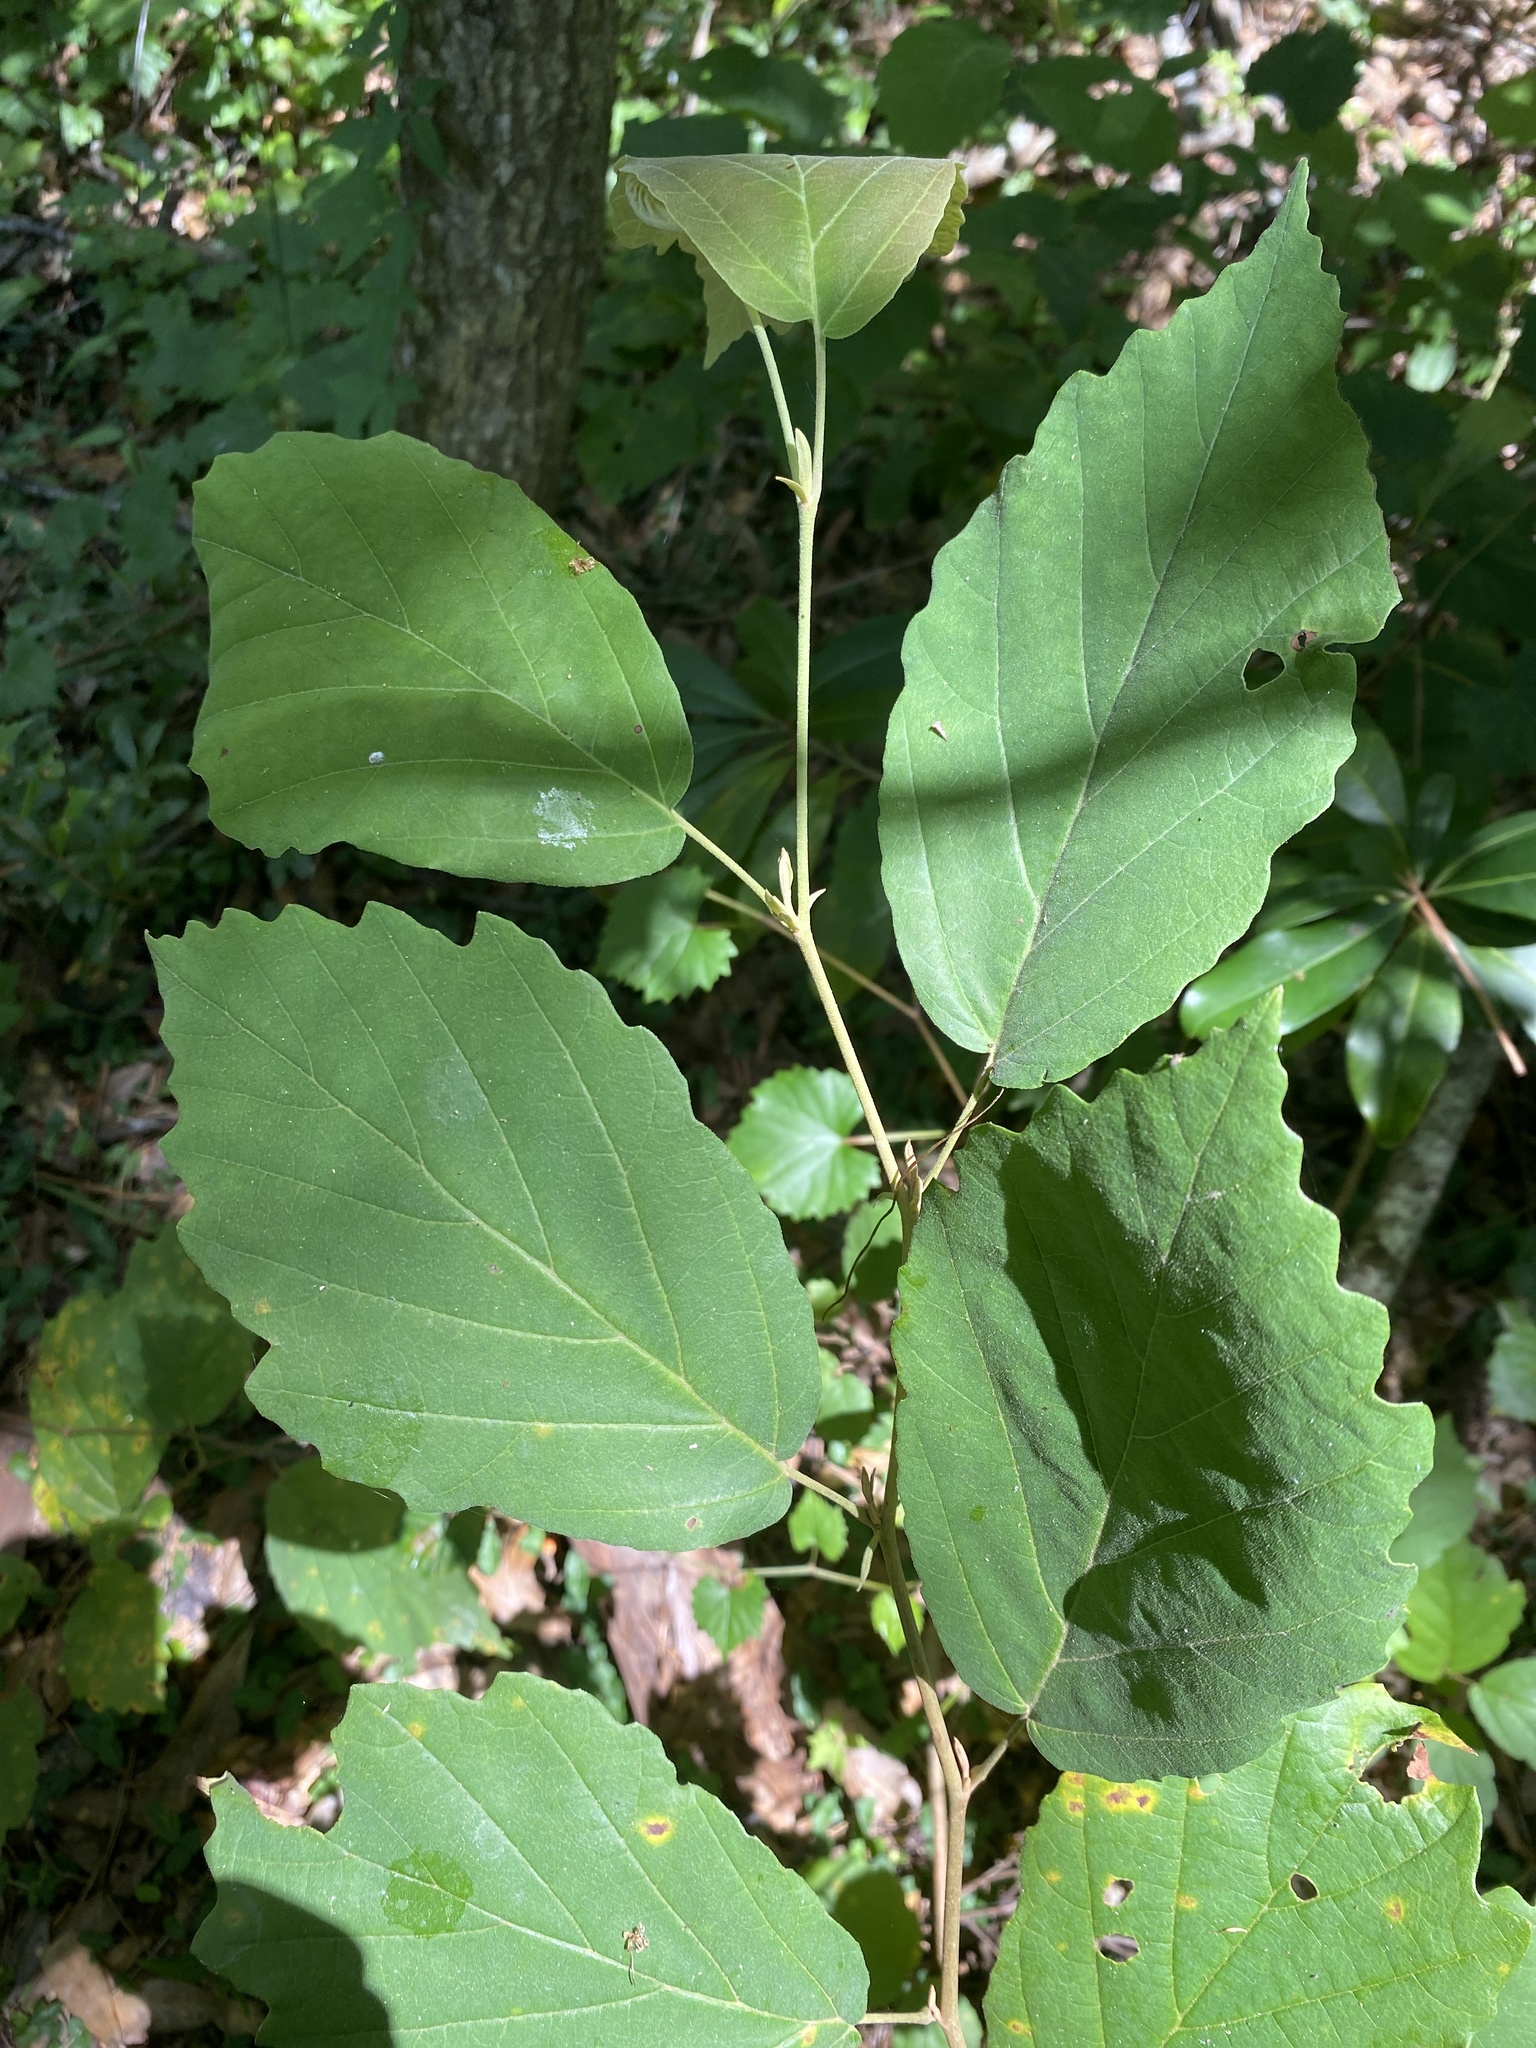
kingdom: Plantae
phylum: Tracheophyta
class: Magnoliopsida
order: Saxifragales
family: Hamamelidaceae
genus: Hamamelis
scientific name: Hamamelis virginiana
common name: Witch-hazel
